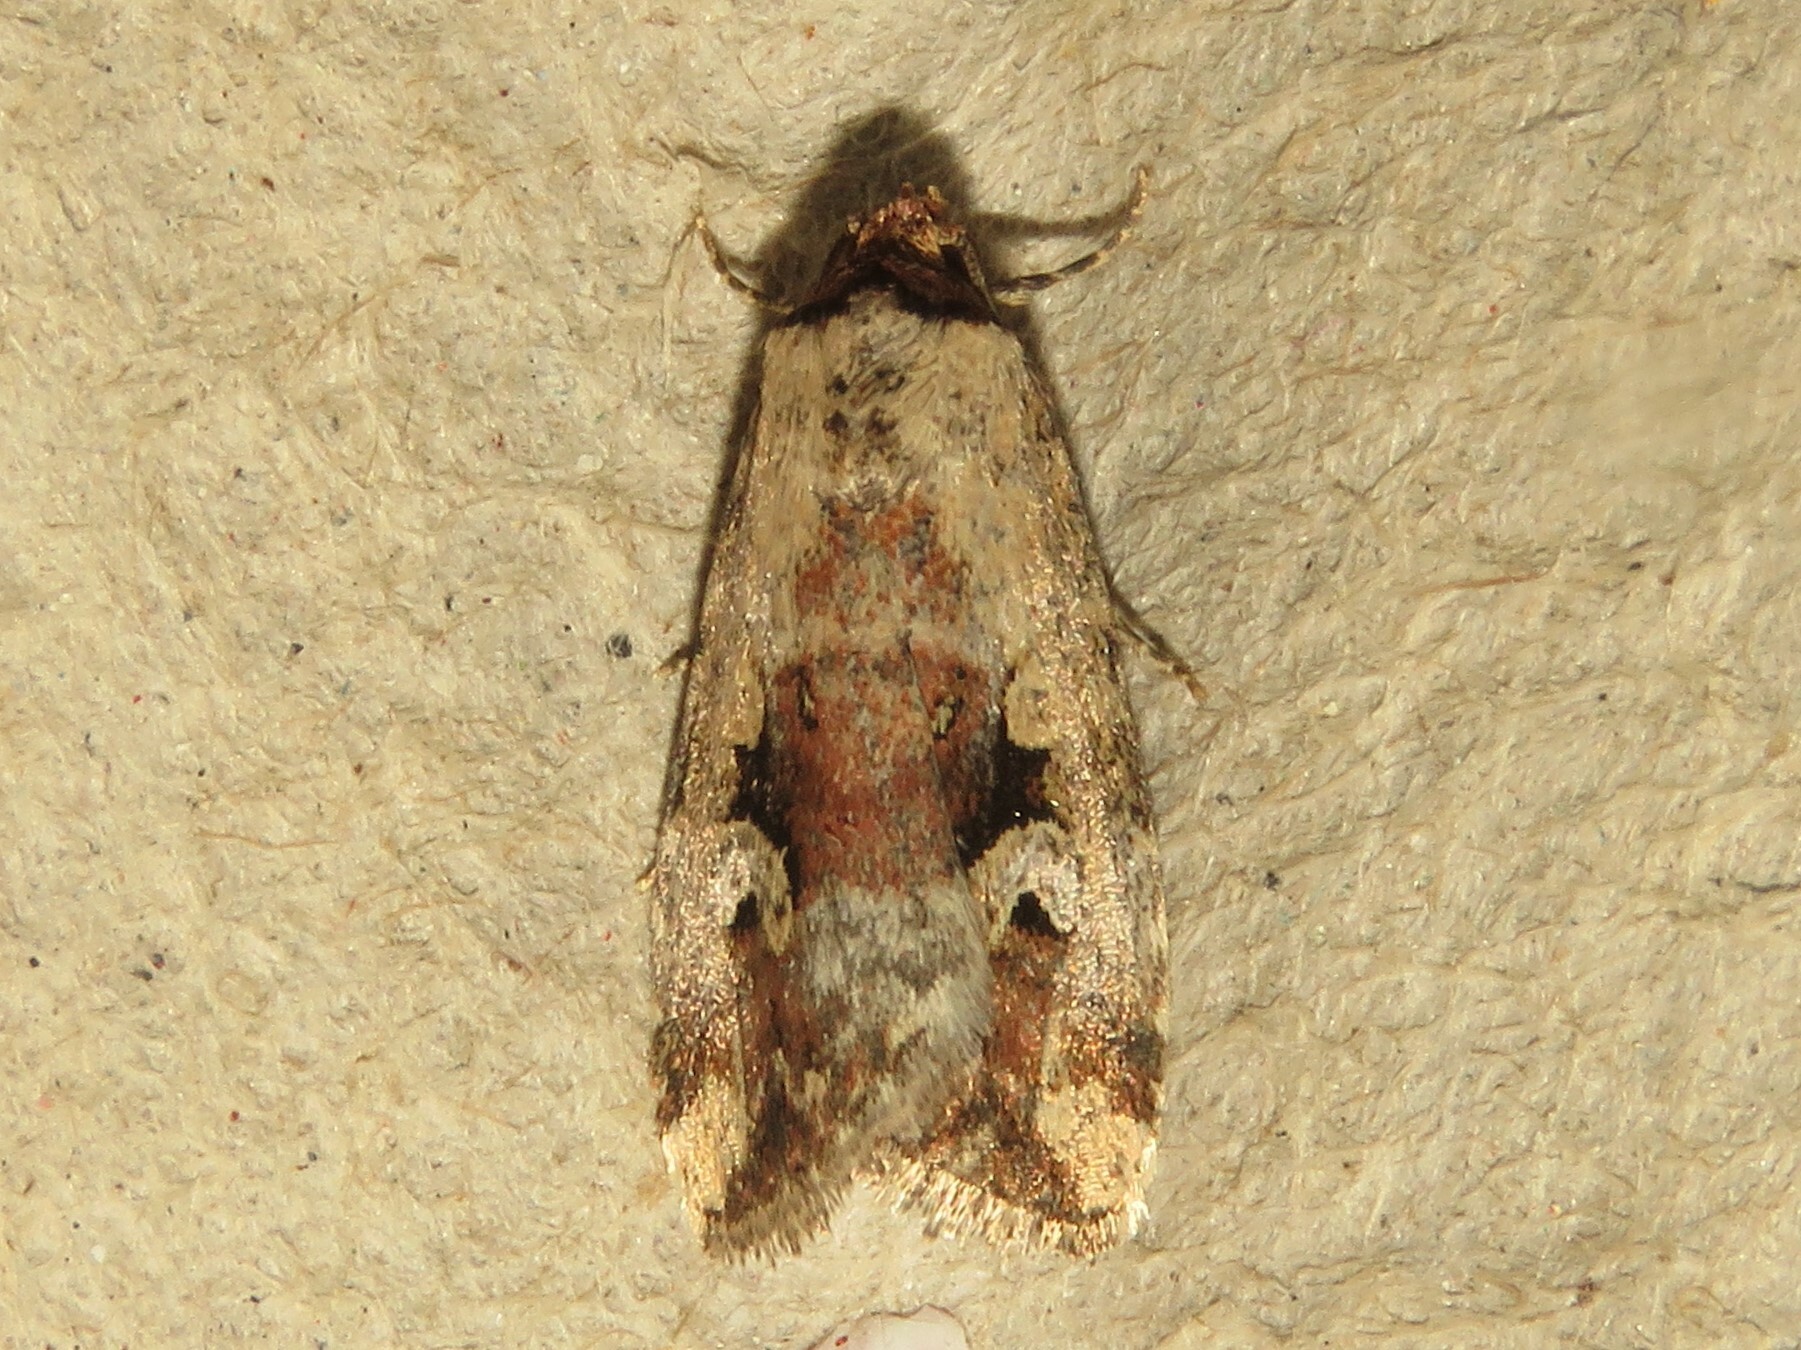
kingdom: Animalia
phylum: Arthropoda
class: Insecta
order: Lepidoptera
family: Noctuidae
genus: Elaphria
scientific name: Elaphria alapallida
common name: Pale-winged midget
